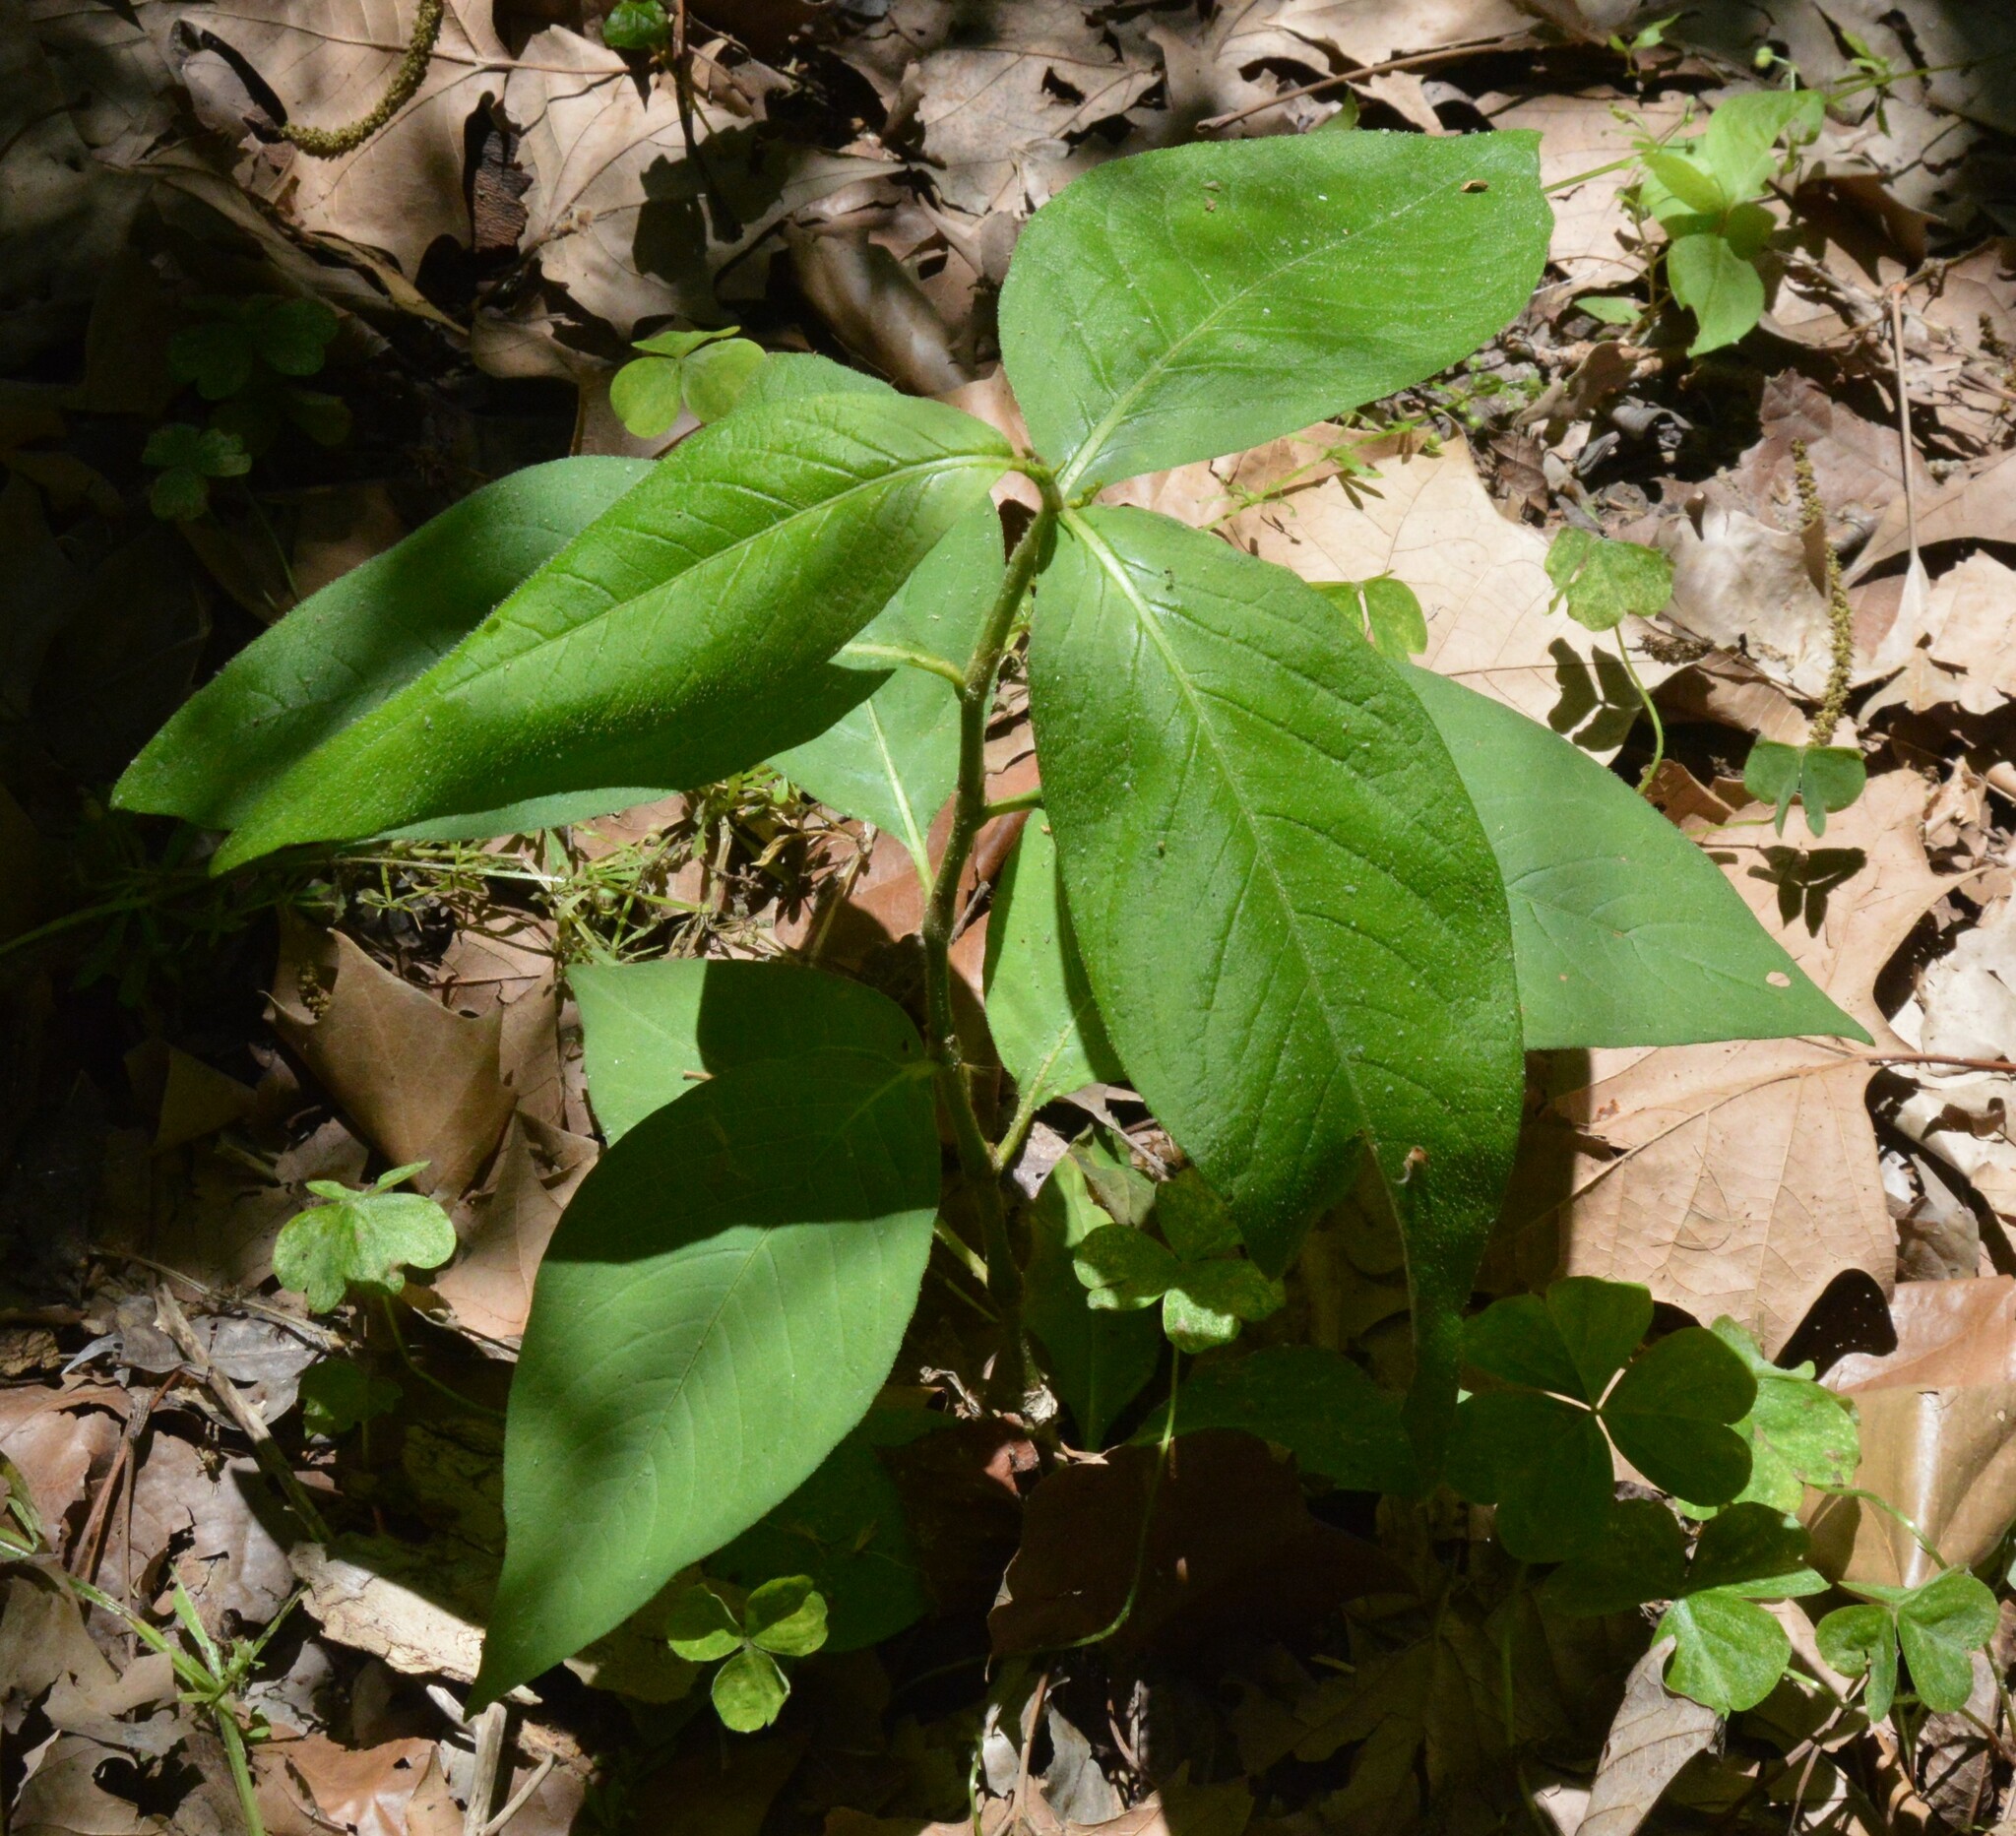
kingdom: Plantae
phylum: Tracheophyta
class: Magnoliopsida
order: Caryophyllales
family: Polygonaceae
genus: Persicaria
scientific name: Persicaria virginiana
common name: Jumpseed
